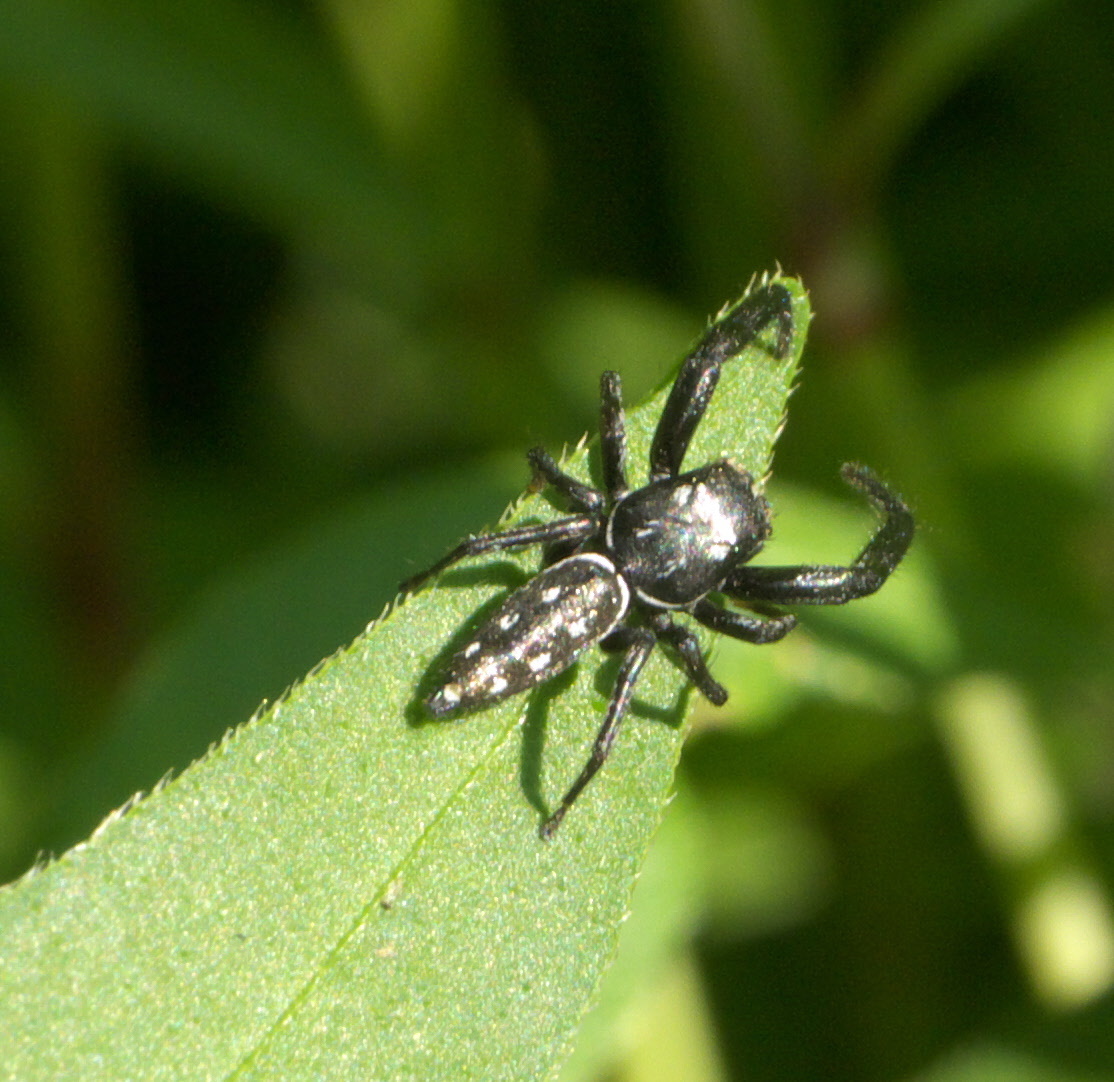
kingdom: Animalia
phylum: Arthropoda
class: Arachnida
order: Araneae
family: Salticidae
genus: Marpissa
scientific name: Marpissa formosa
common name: Short-bellied slender jumping spider
